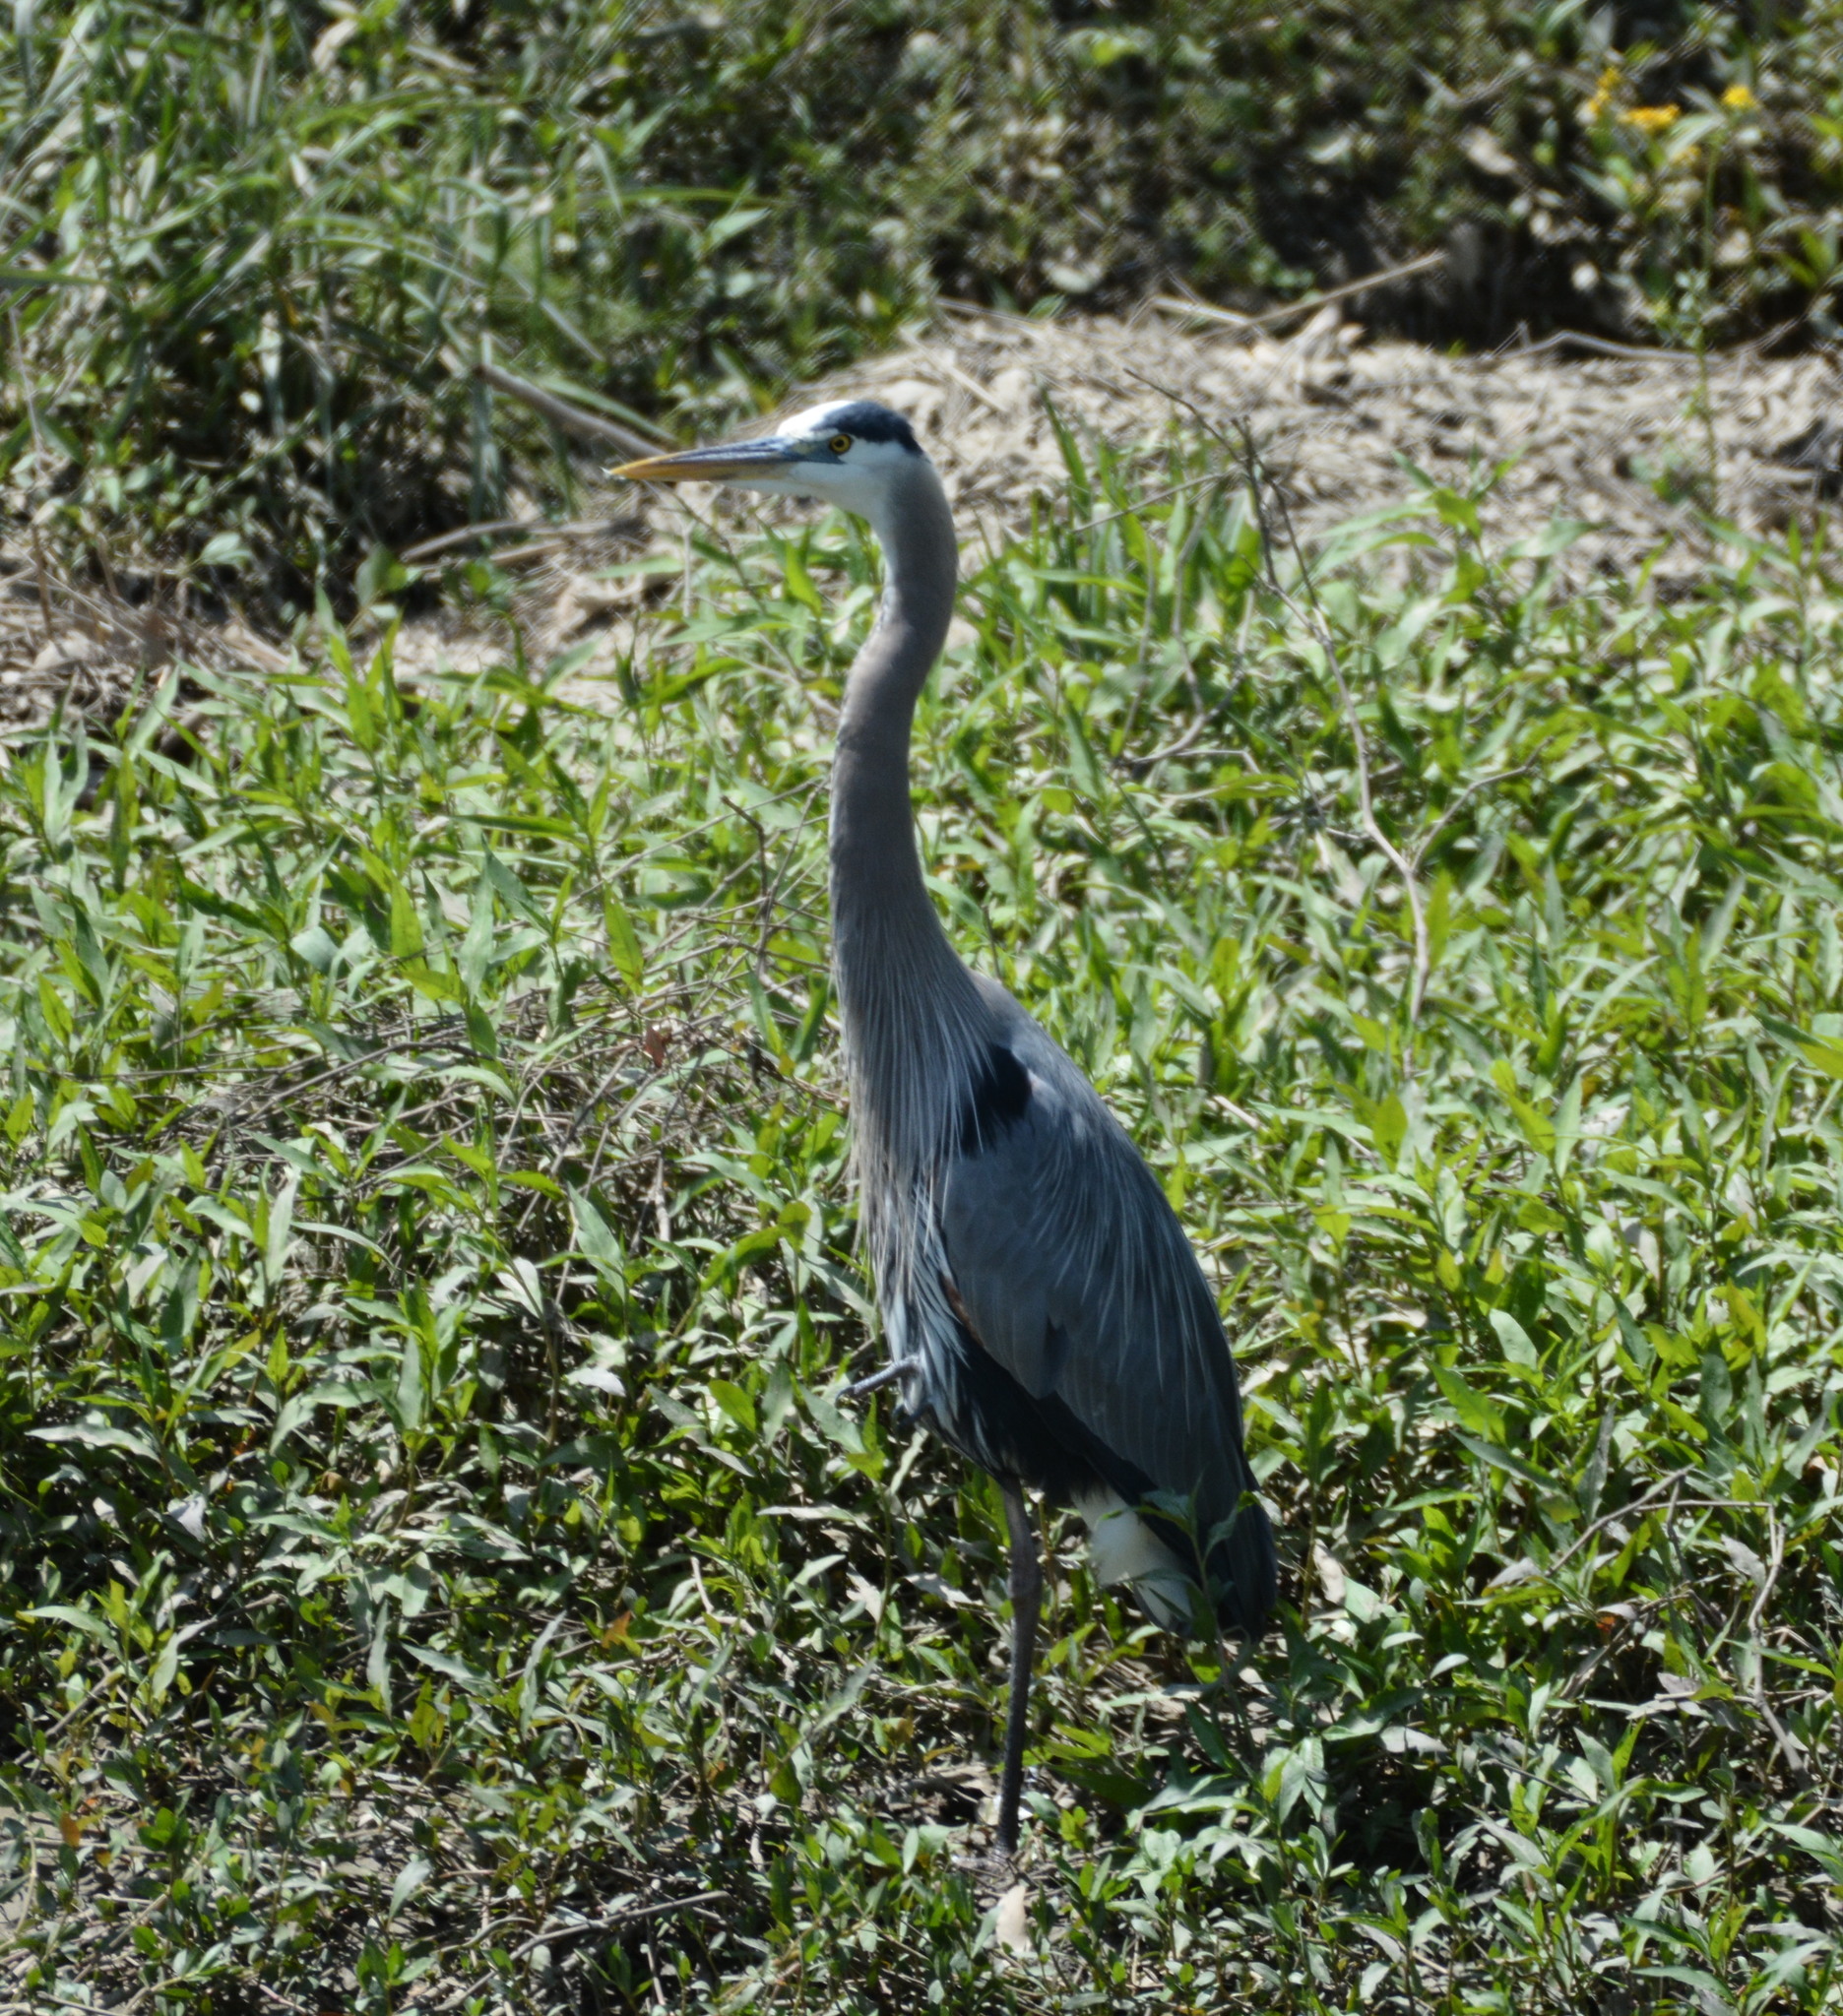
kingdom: Animalia
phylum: Chordata
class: Aves
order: Pelecaniformes
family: Ardeidae
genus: Ardea
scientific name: Ardea herodias
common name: Great blue heron
